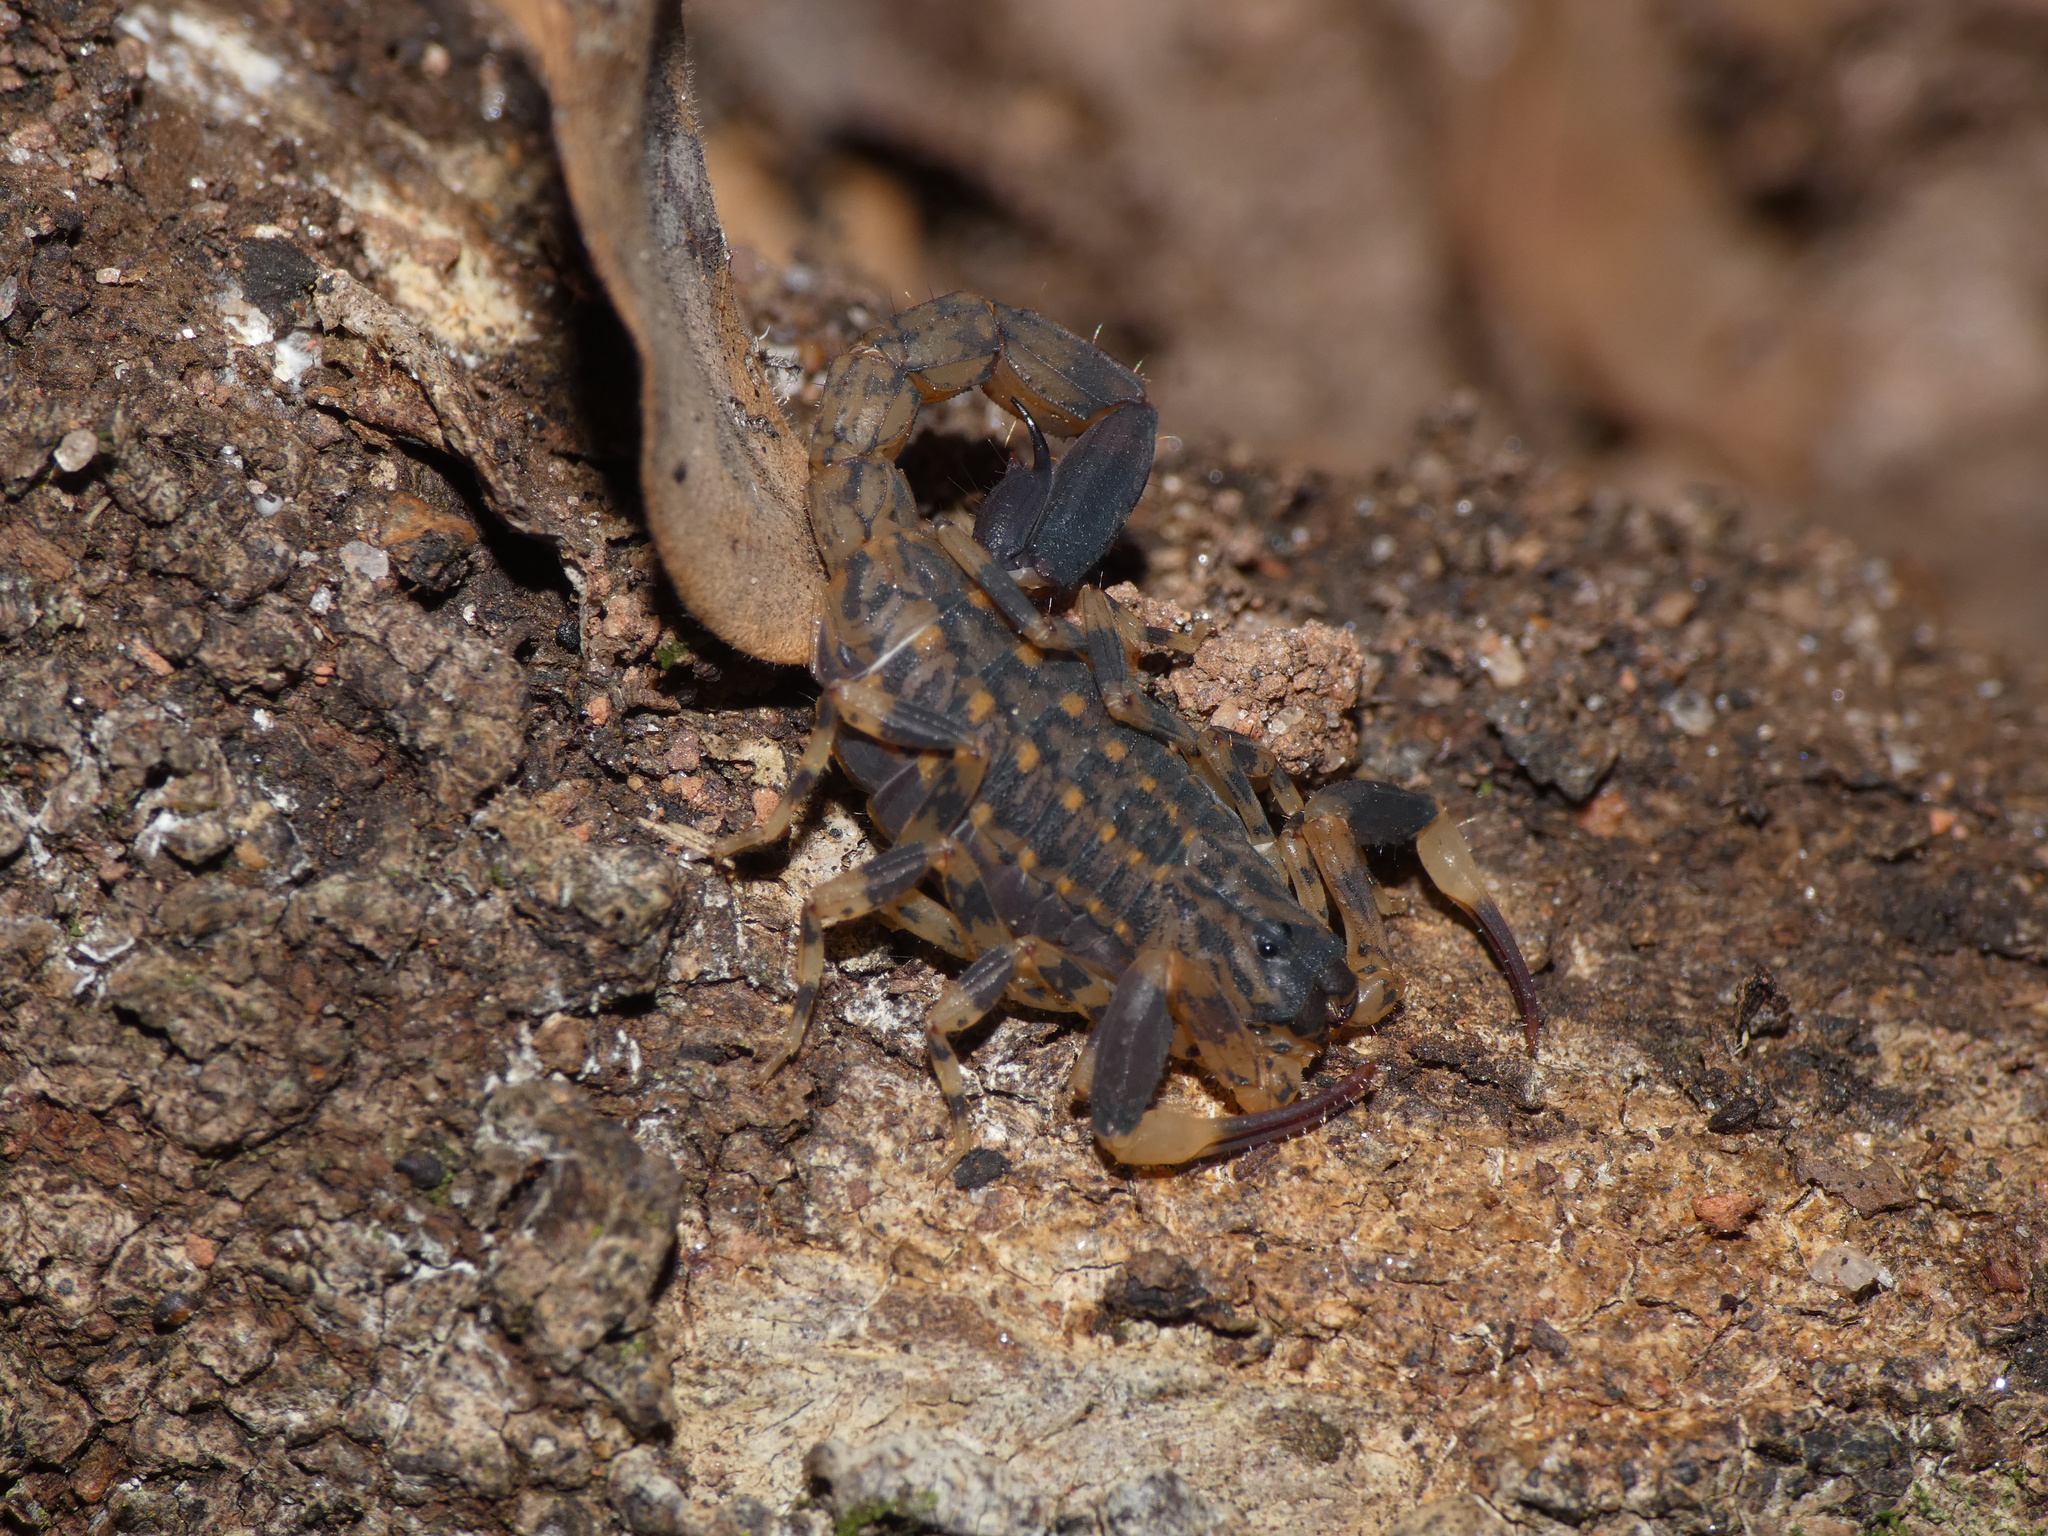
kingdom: Animalia
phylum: Arthropoda
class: Arachnida
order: Scorpiones
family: Buthidae
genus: Afrolychas
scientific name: Afrolychas burdoi
